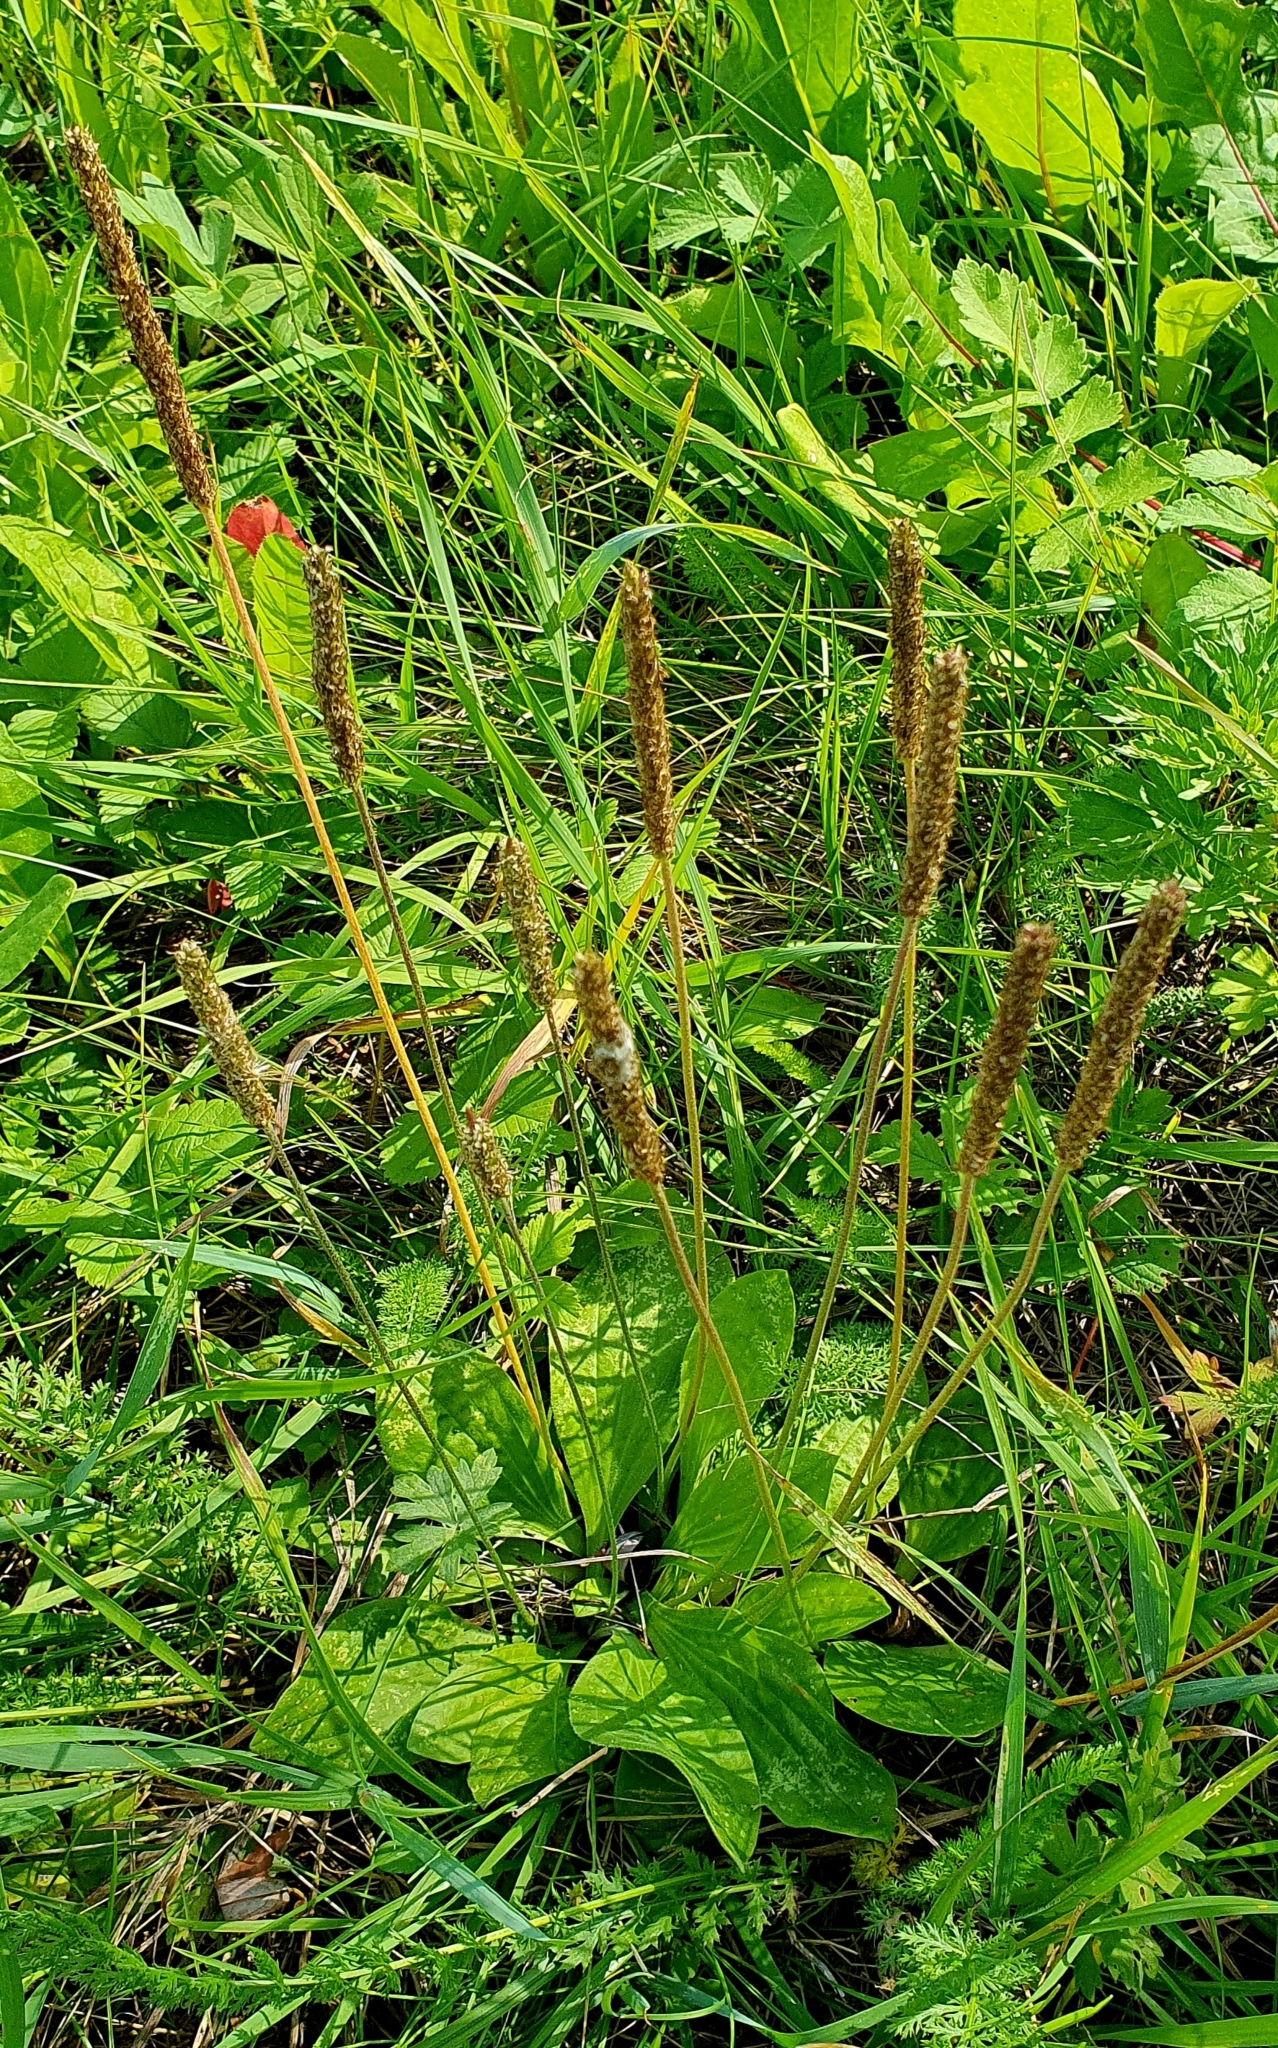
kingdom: Plantae
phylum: Tracheophyta
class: Magnoliopsida
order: Lamiales
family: Plantaginaceae
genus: Plantago
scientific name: Plantago media
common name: Hoary plantain
